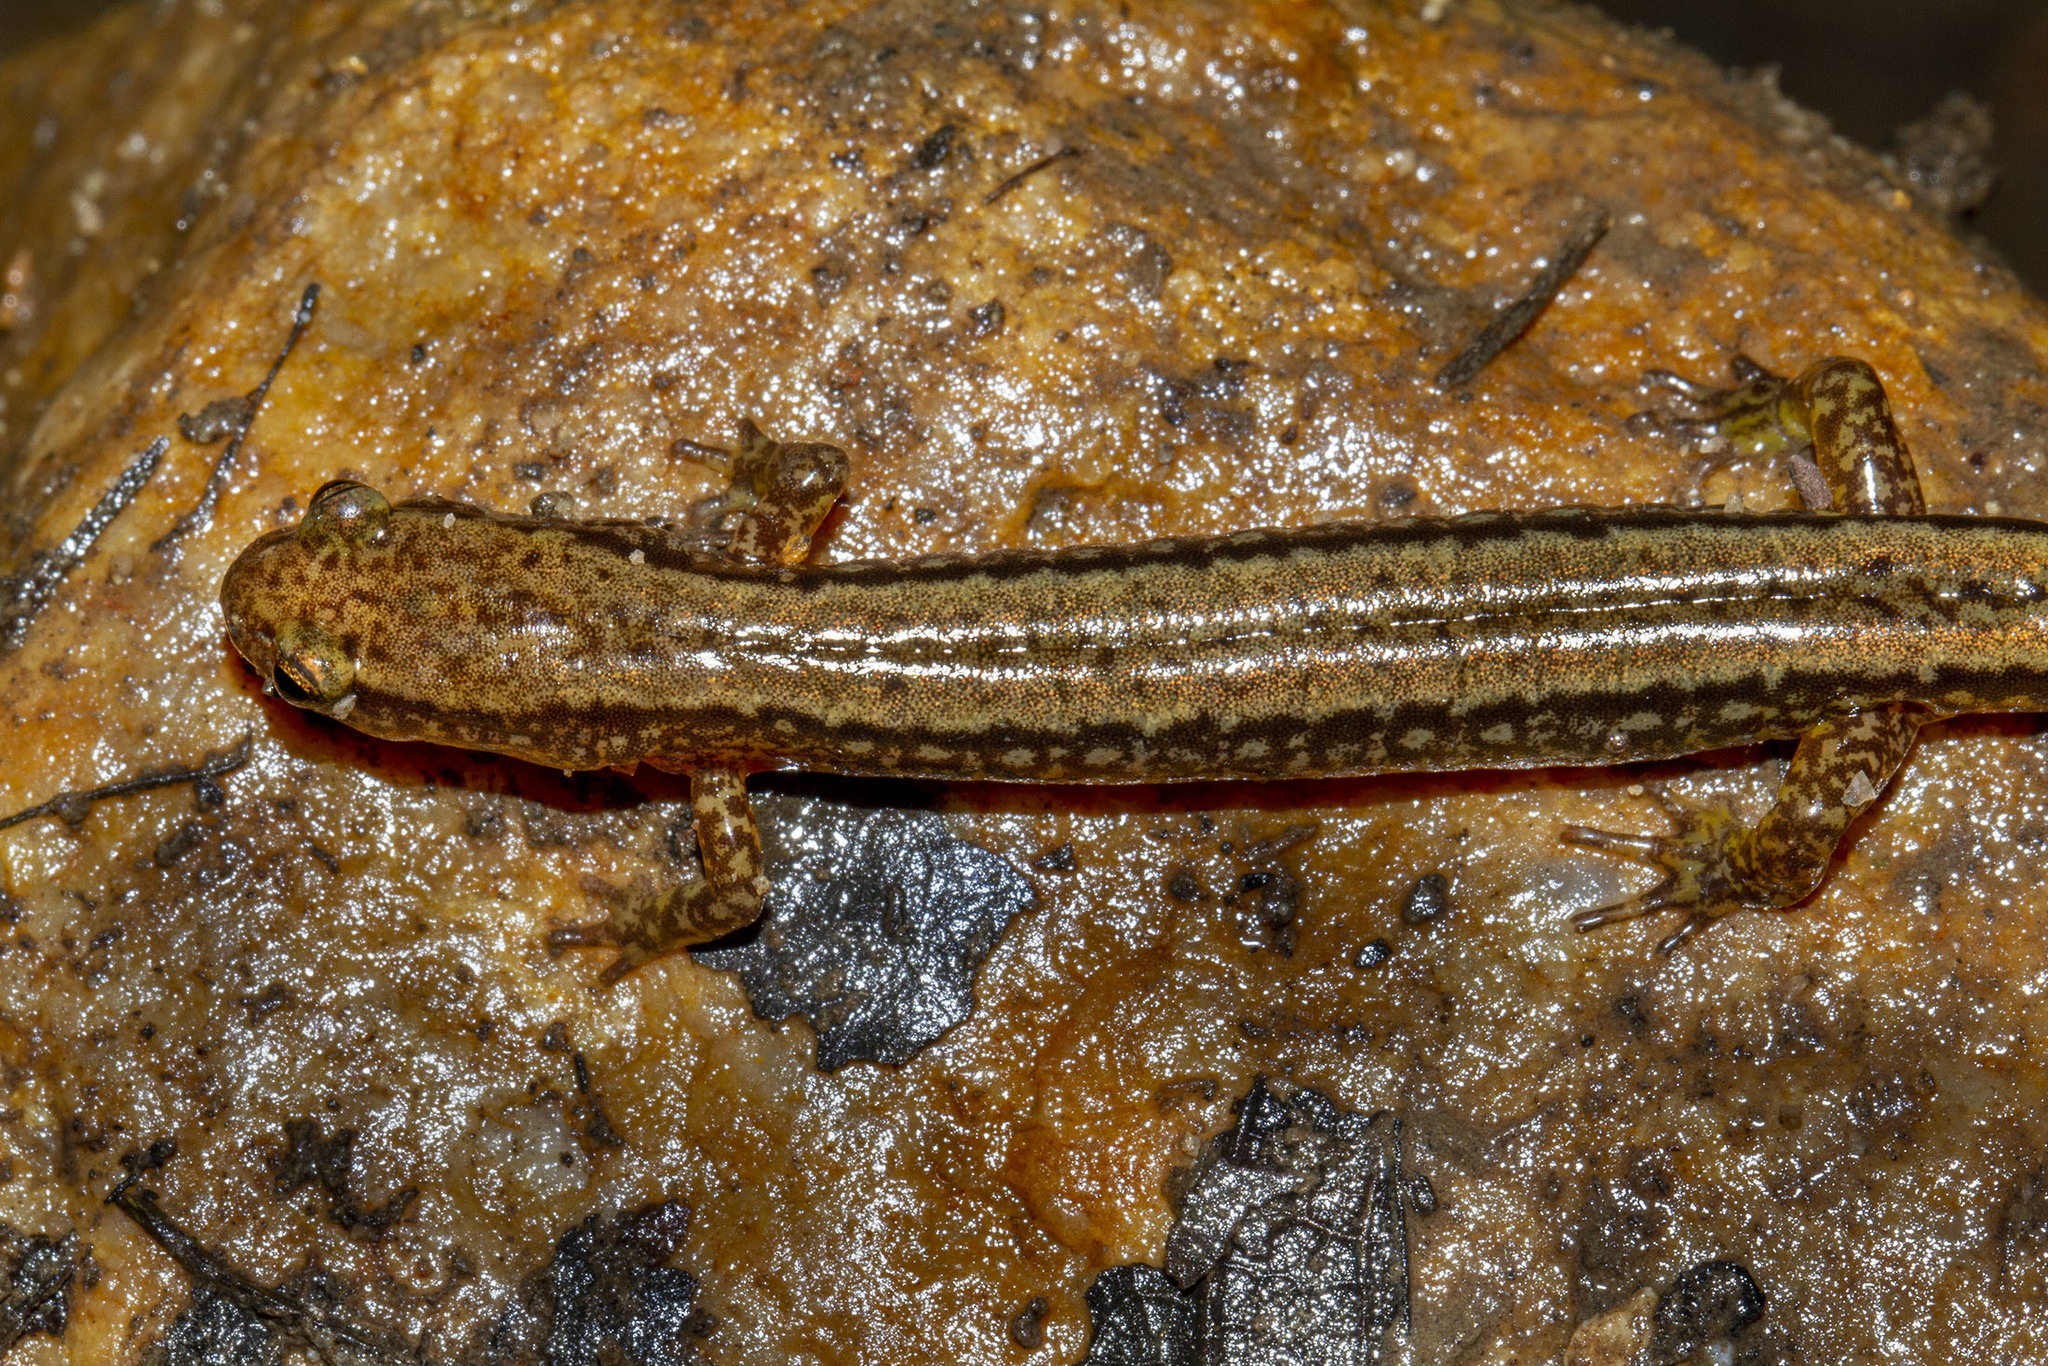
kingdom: Animalia
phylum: Chordata
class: Amphibia
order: Caudata
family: Plethodontidae
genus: Eurycea
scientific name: Eurycea bislineata
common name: Northern two-lined salamander
